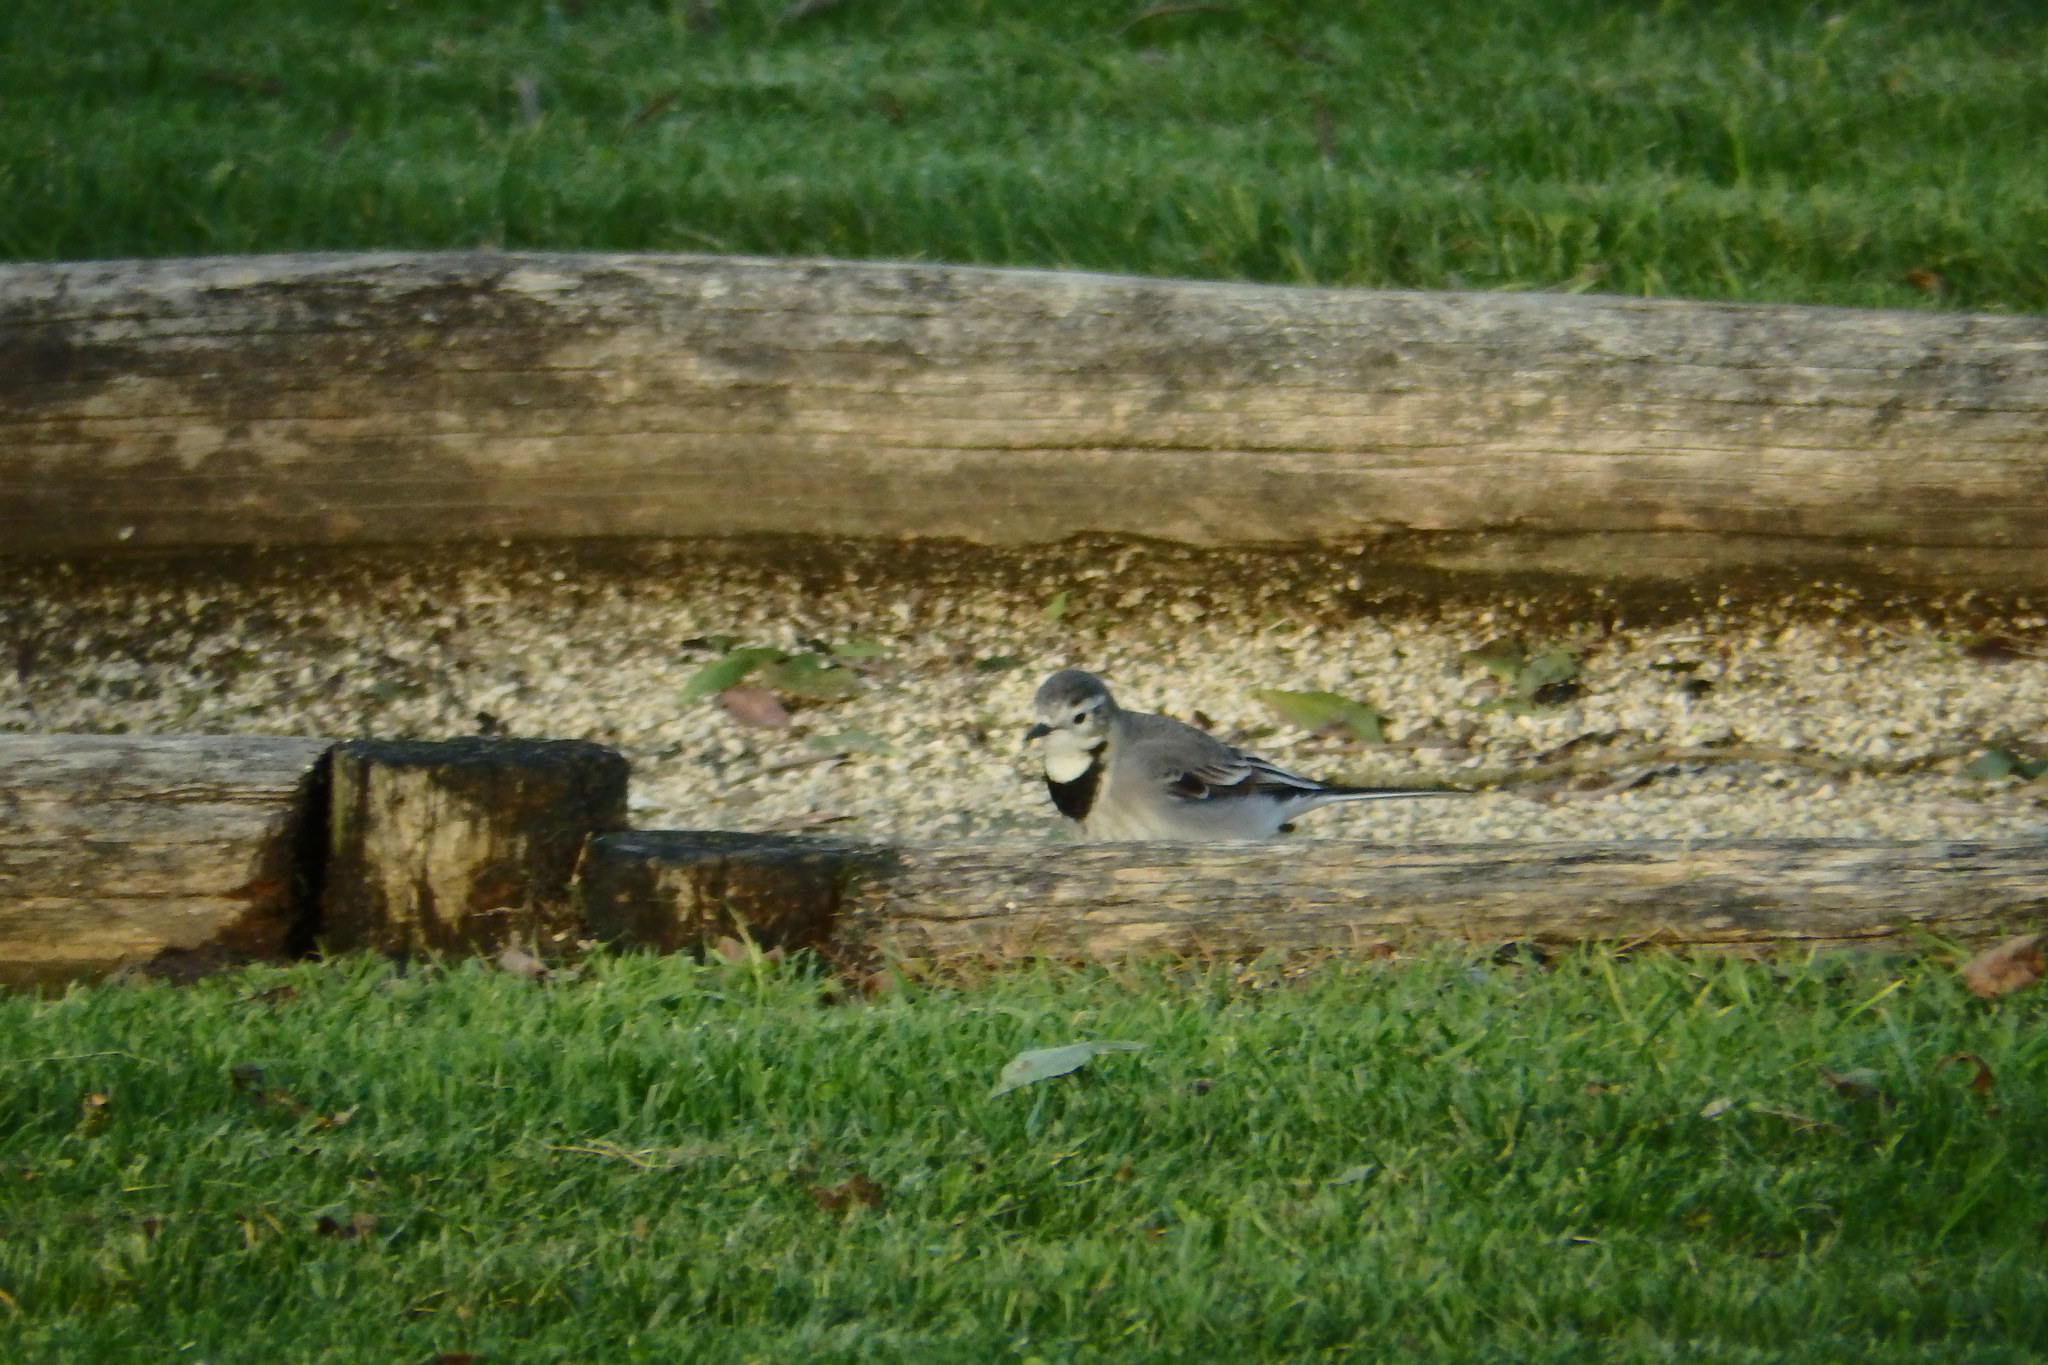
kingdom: Animalia
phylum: Chordata
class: Aves
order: Passeriformes
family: Motacillidae
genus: Motacilla
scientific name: Motacilla alba
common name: White wagtail
